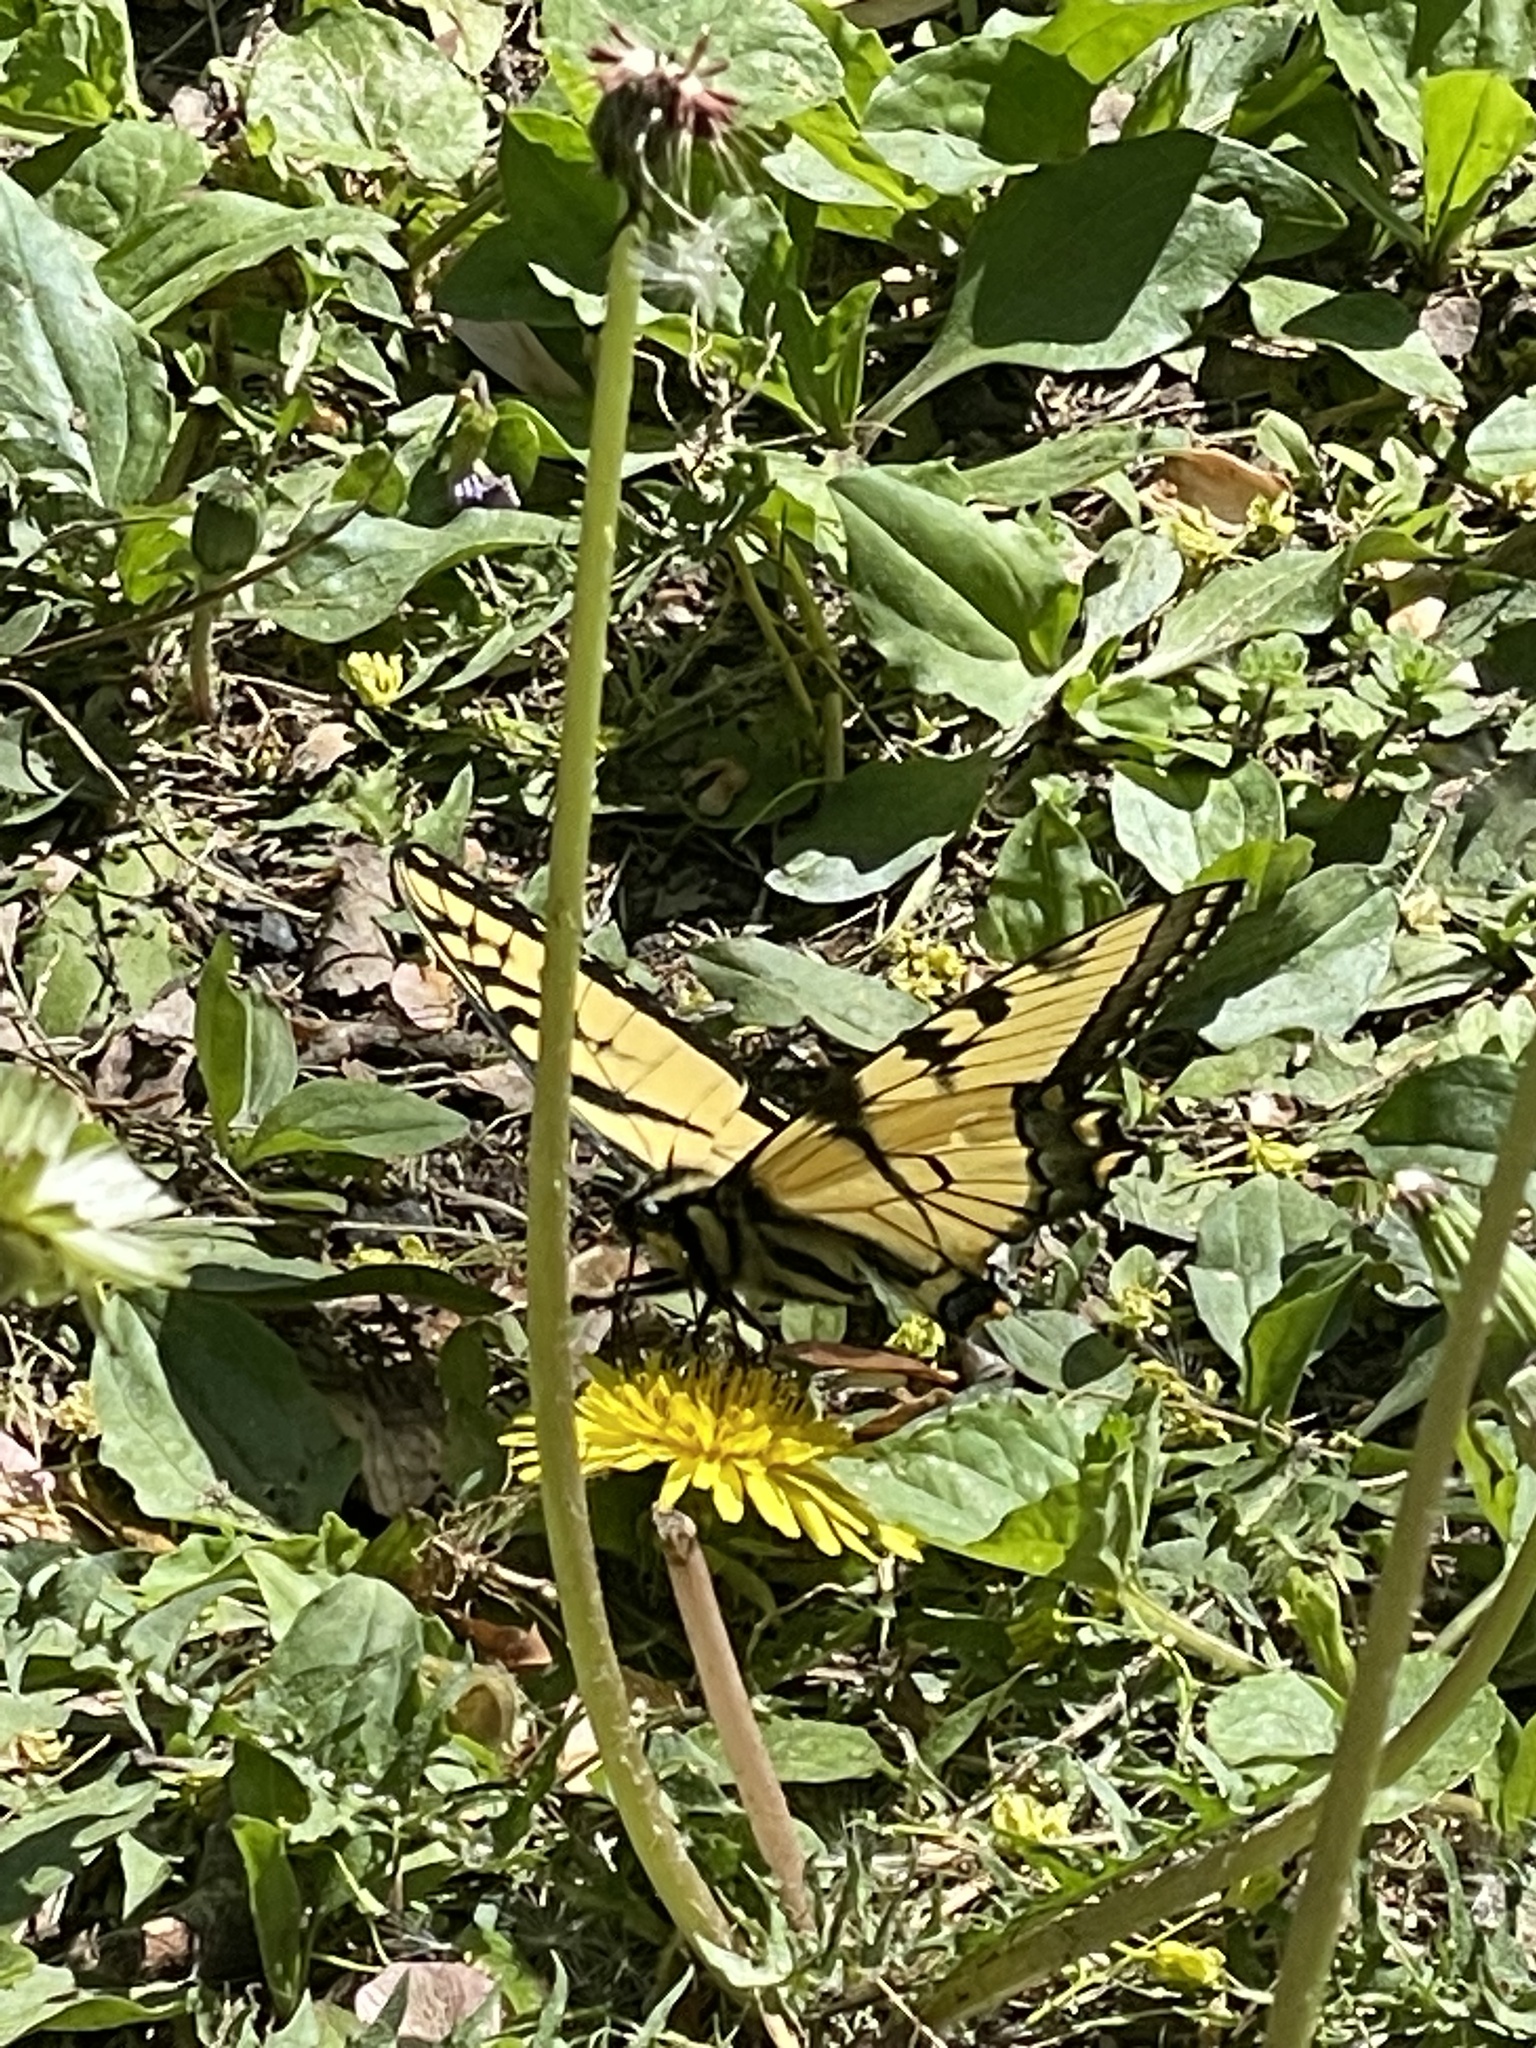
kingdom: Animalia
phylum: Arthropoda
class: Insecta
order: Lepidoptera
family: Papilionidae
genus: Papilio
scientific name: Papilio glaucus
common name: Tiger swallowtail
